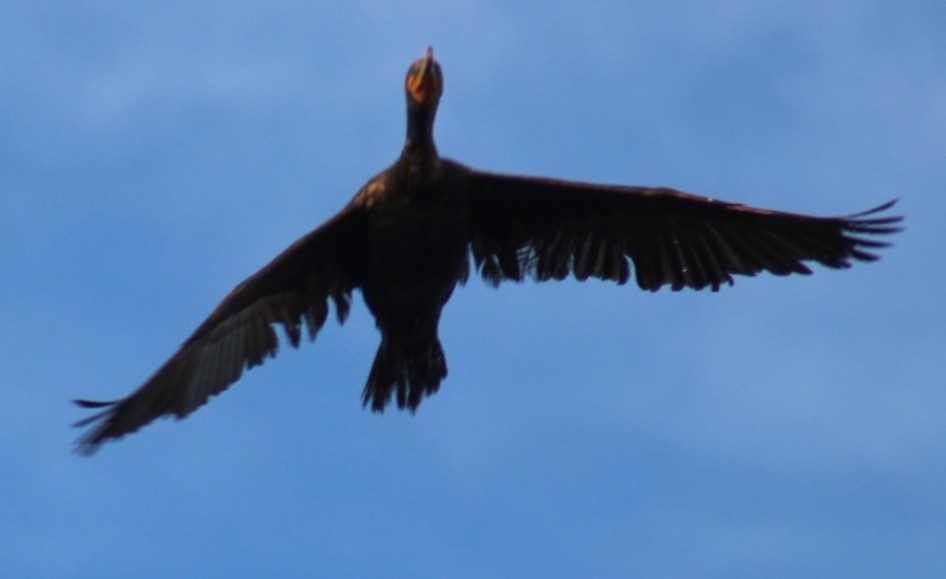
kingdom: Animalia
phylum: Chordata
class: Aves
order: Suliformes
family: Phalacrocoracidae
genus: Phalacrocorax
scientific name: Phalacrocorax auritus
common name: Double-crested cormorant
